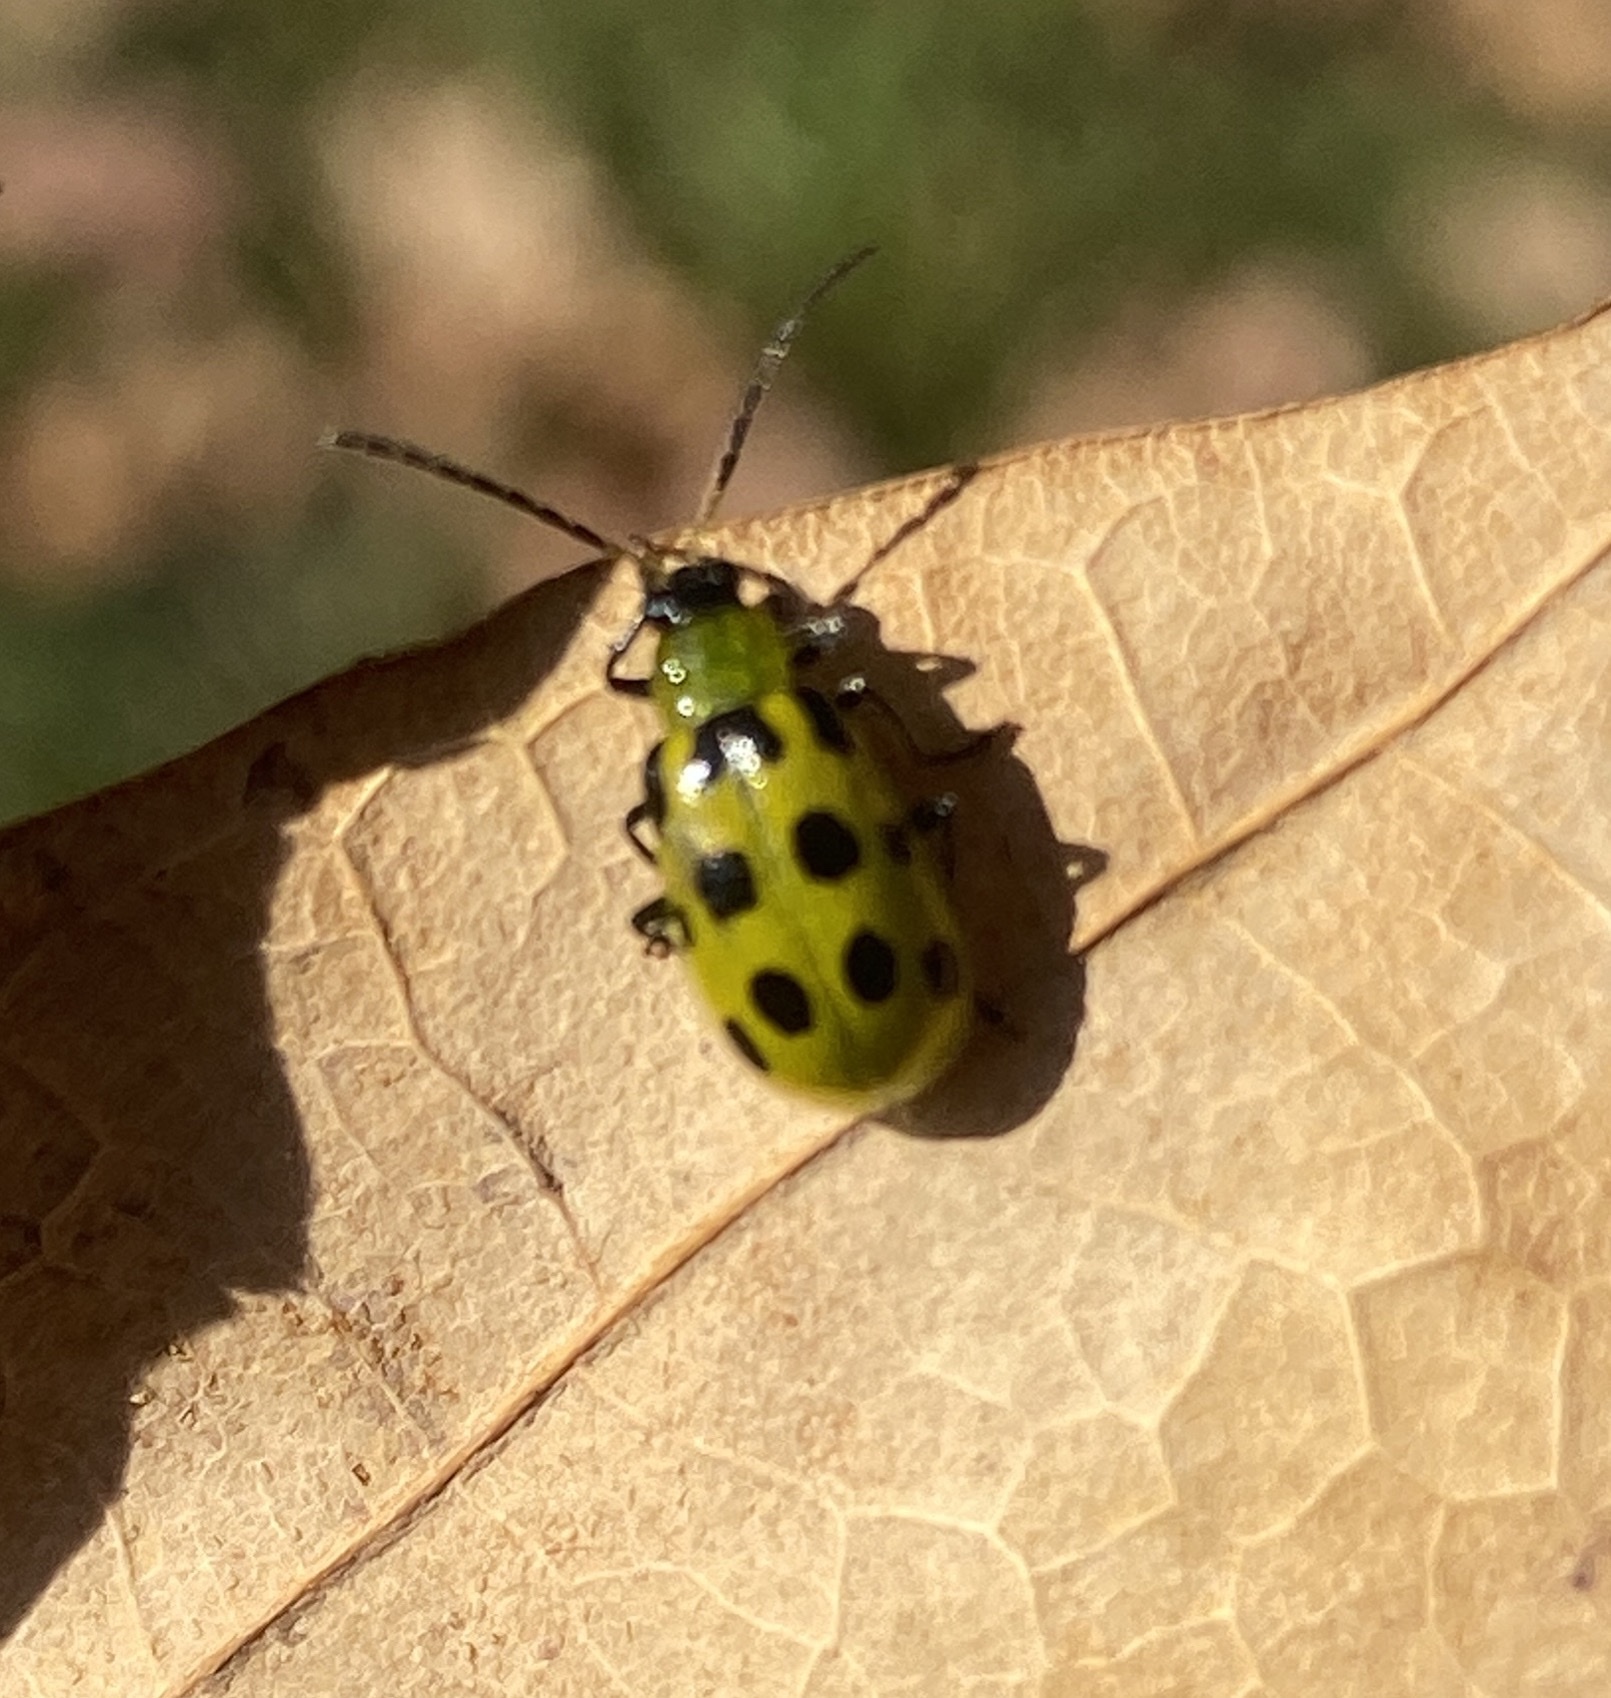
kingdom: Animalia
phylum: Arthropoda
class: Insecta
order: Coleoptera
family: Chrysomelidae
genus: Diabrotica
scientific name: Diabrotica undecimpunctata
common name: Spotted cucumber beetle
